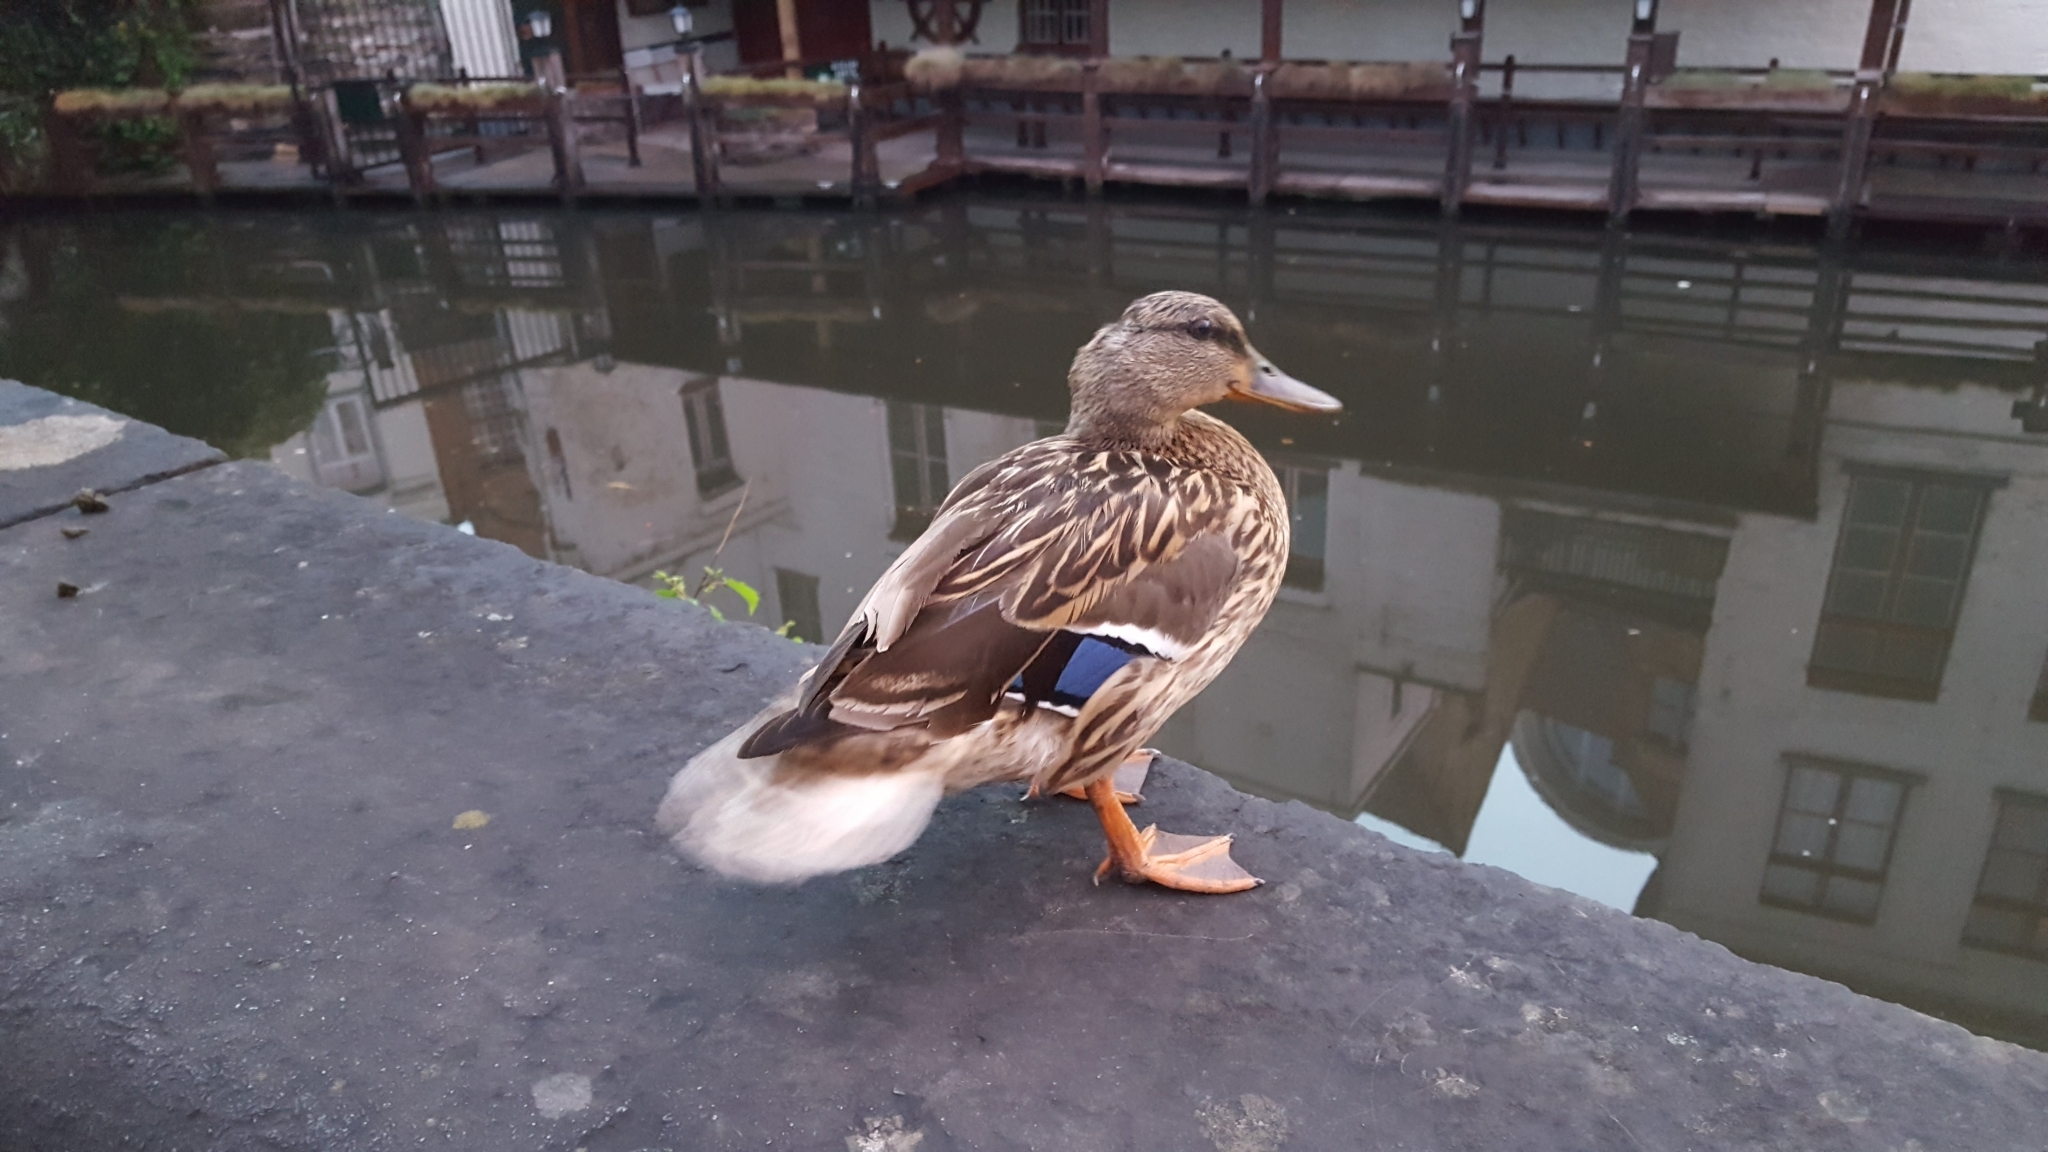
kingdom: Animalia
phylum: Chordata
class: Aves
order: Anseriformes
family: Anatidae
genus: Anas
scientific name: Anas platyrhynchos
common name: Mallard
